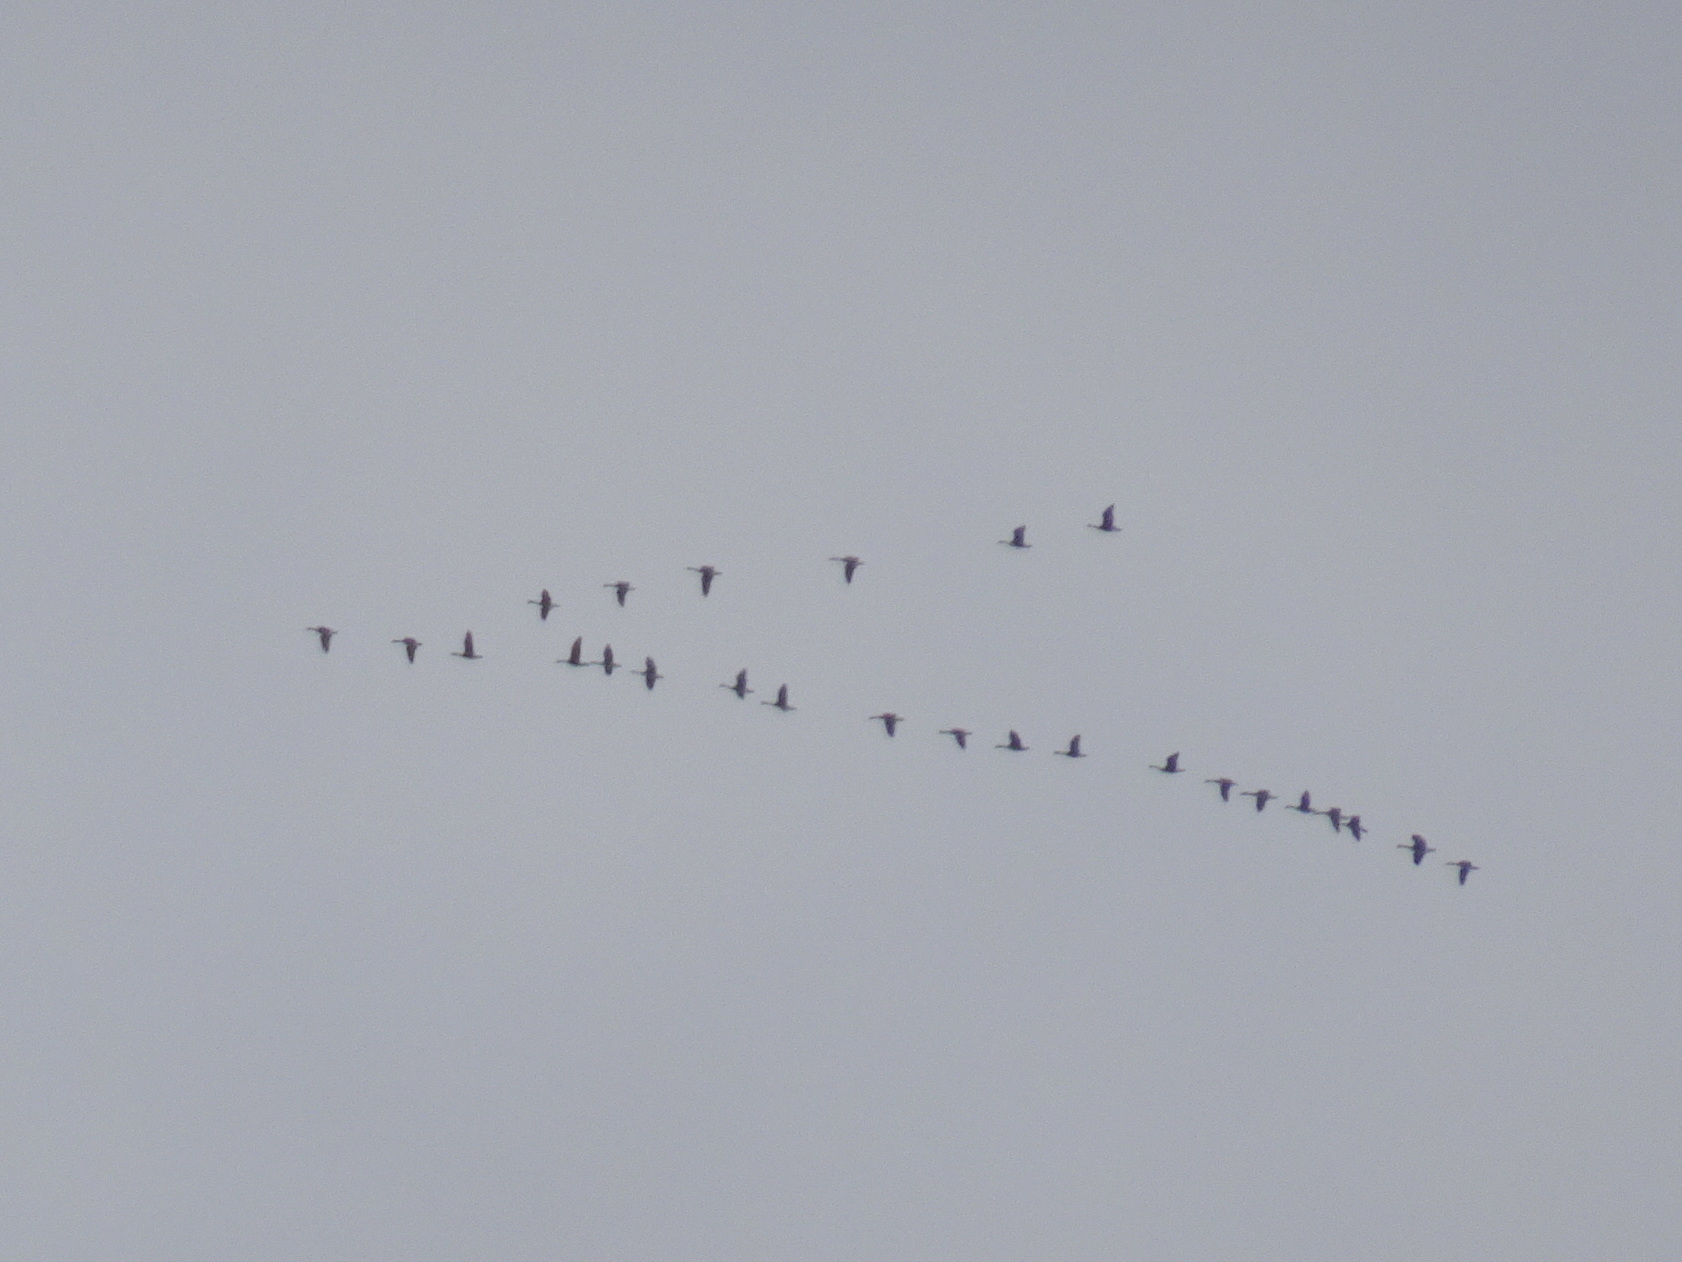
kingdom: Animalia
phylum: Chordata
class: Aves
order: Anseriformes
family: Anatidae
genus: Branta
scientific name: Branta canadensis
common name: Canada goose
